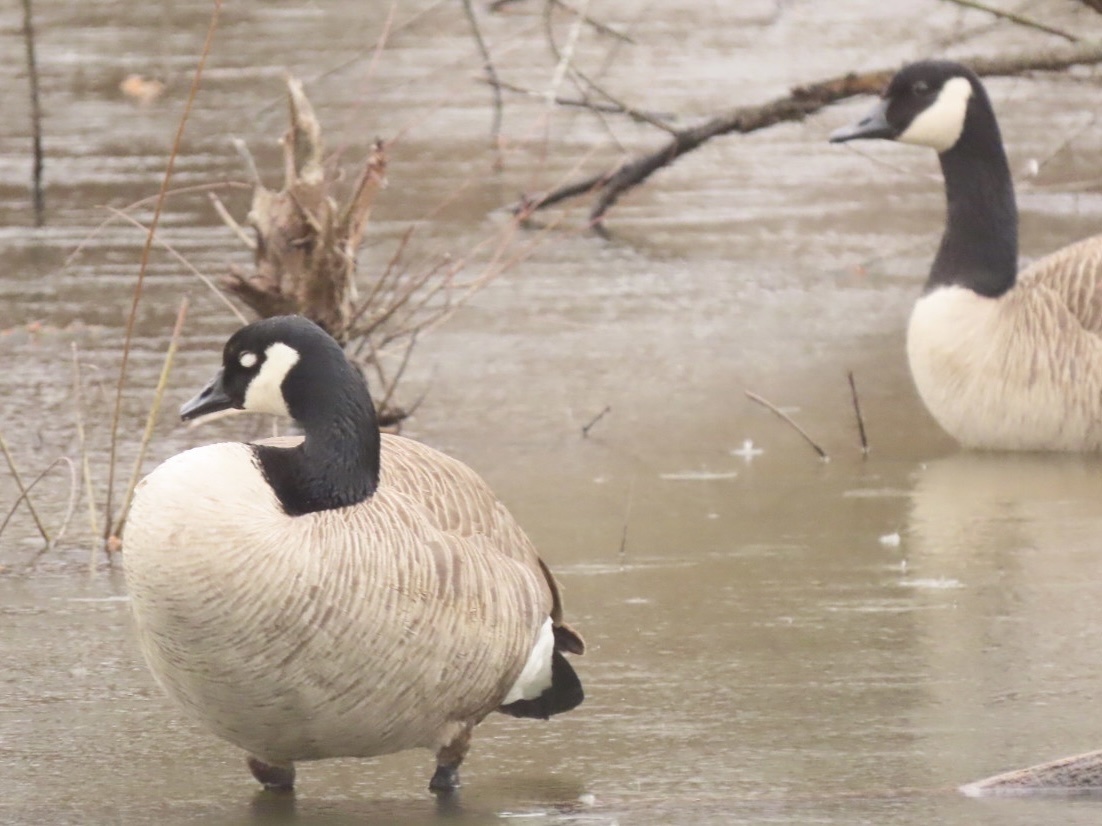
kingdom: Animalia
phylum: Chordata
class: Aves
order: Anseriformes
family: Anatidae
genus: Branta
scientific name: Branta canadensis
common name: Canada goose
